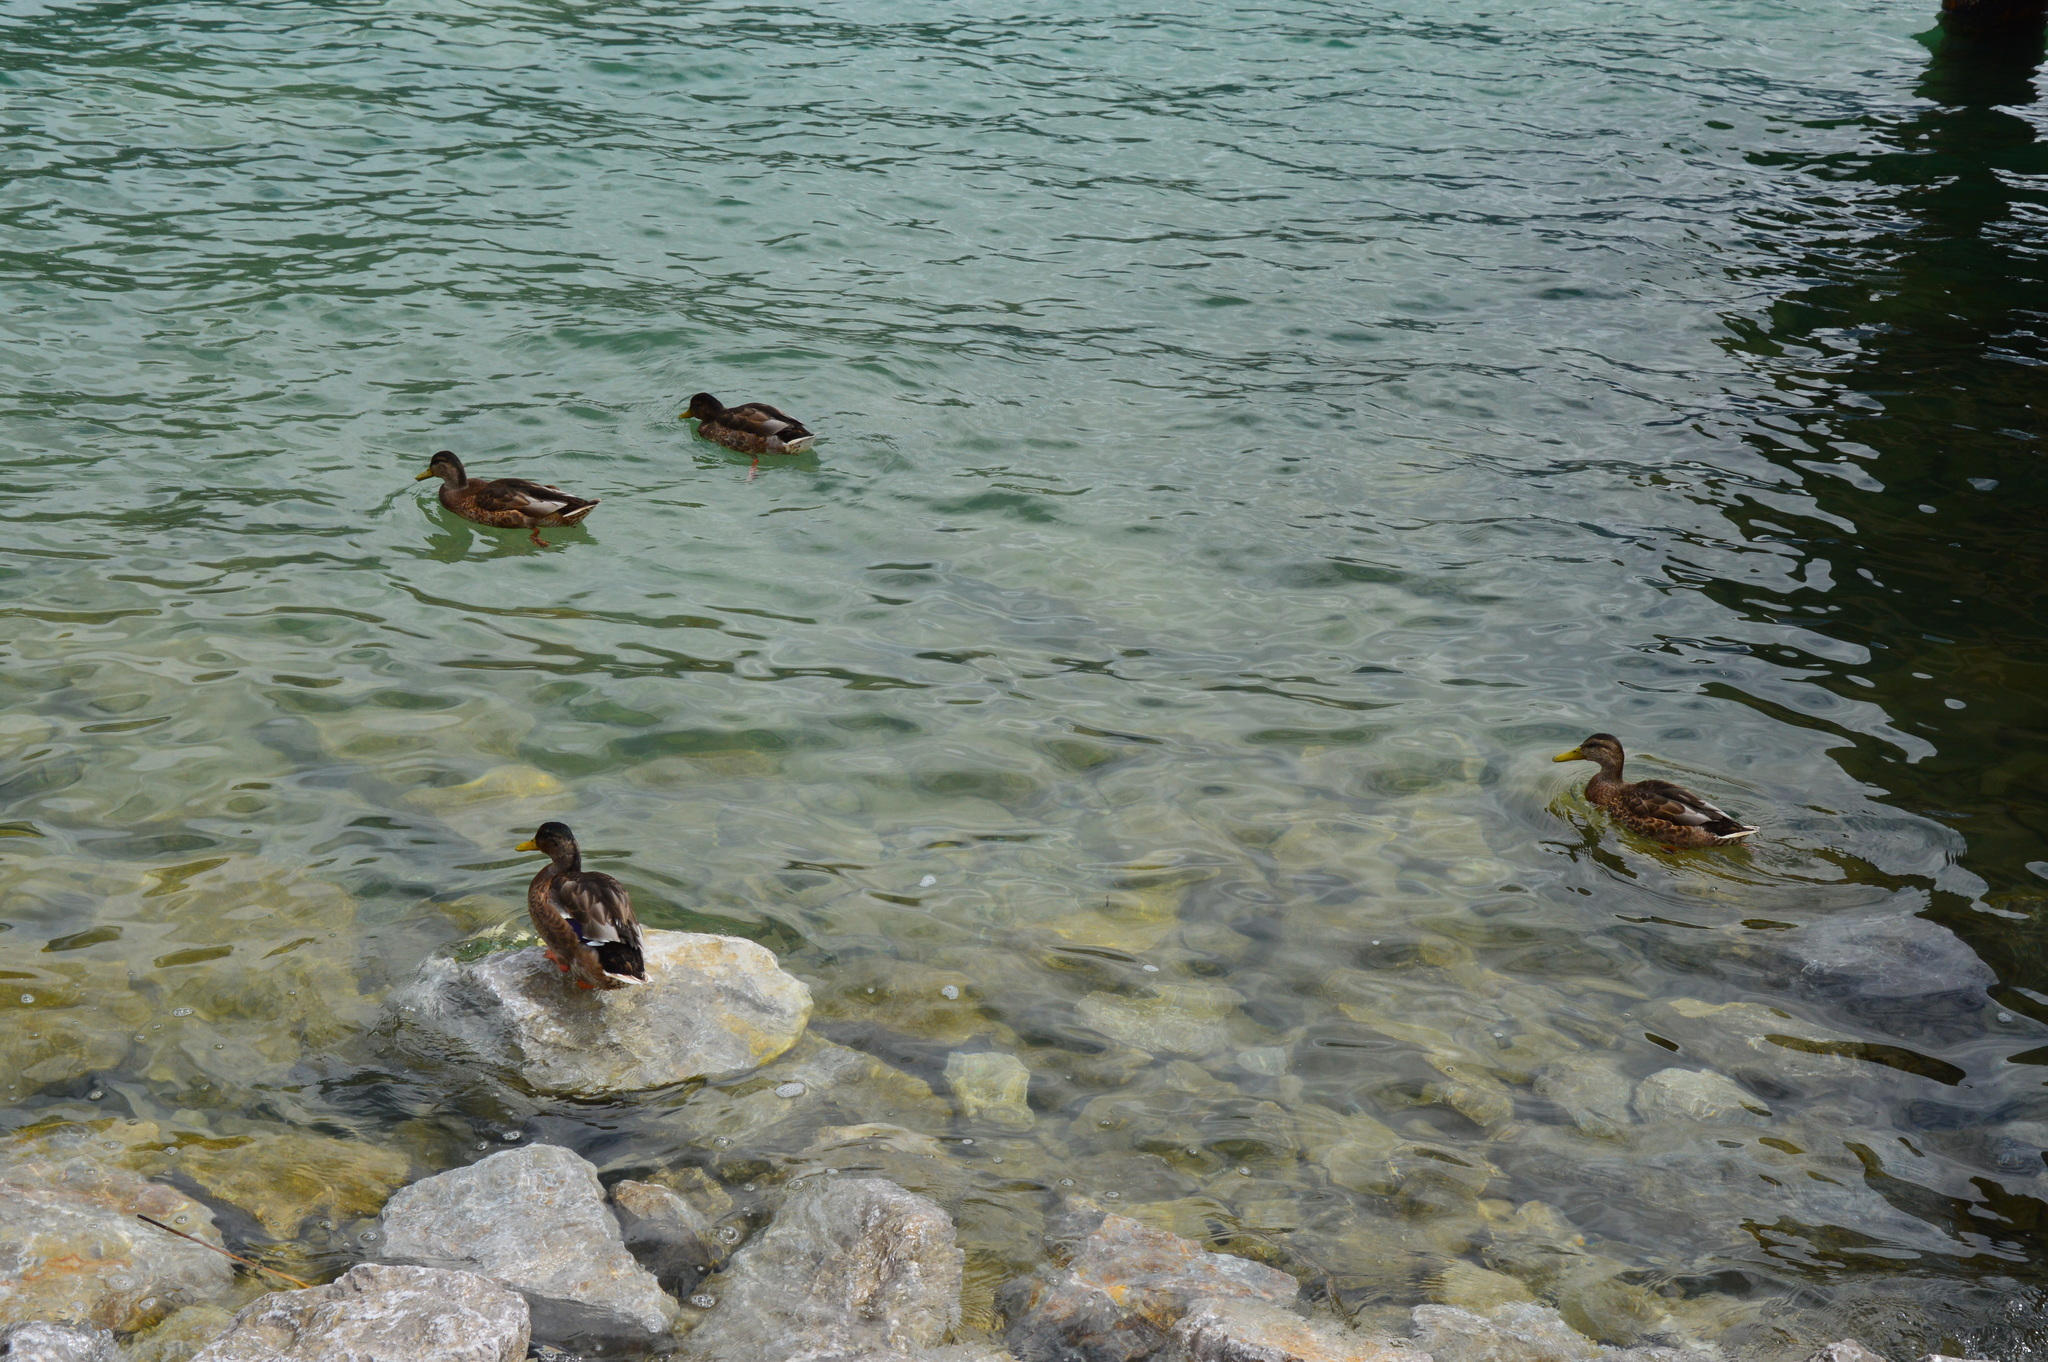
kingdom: Animalia
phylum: Chordata
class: Aves
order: Anseriformes
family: Anatidae
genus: Anas
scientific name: Anas platyrhynchos
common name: Mallard
